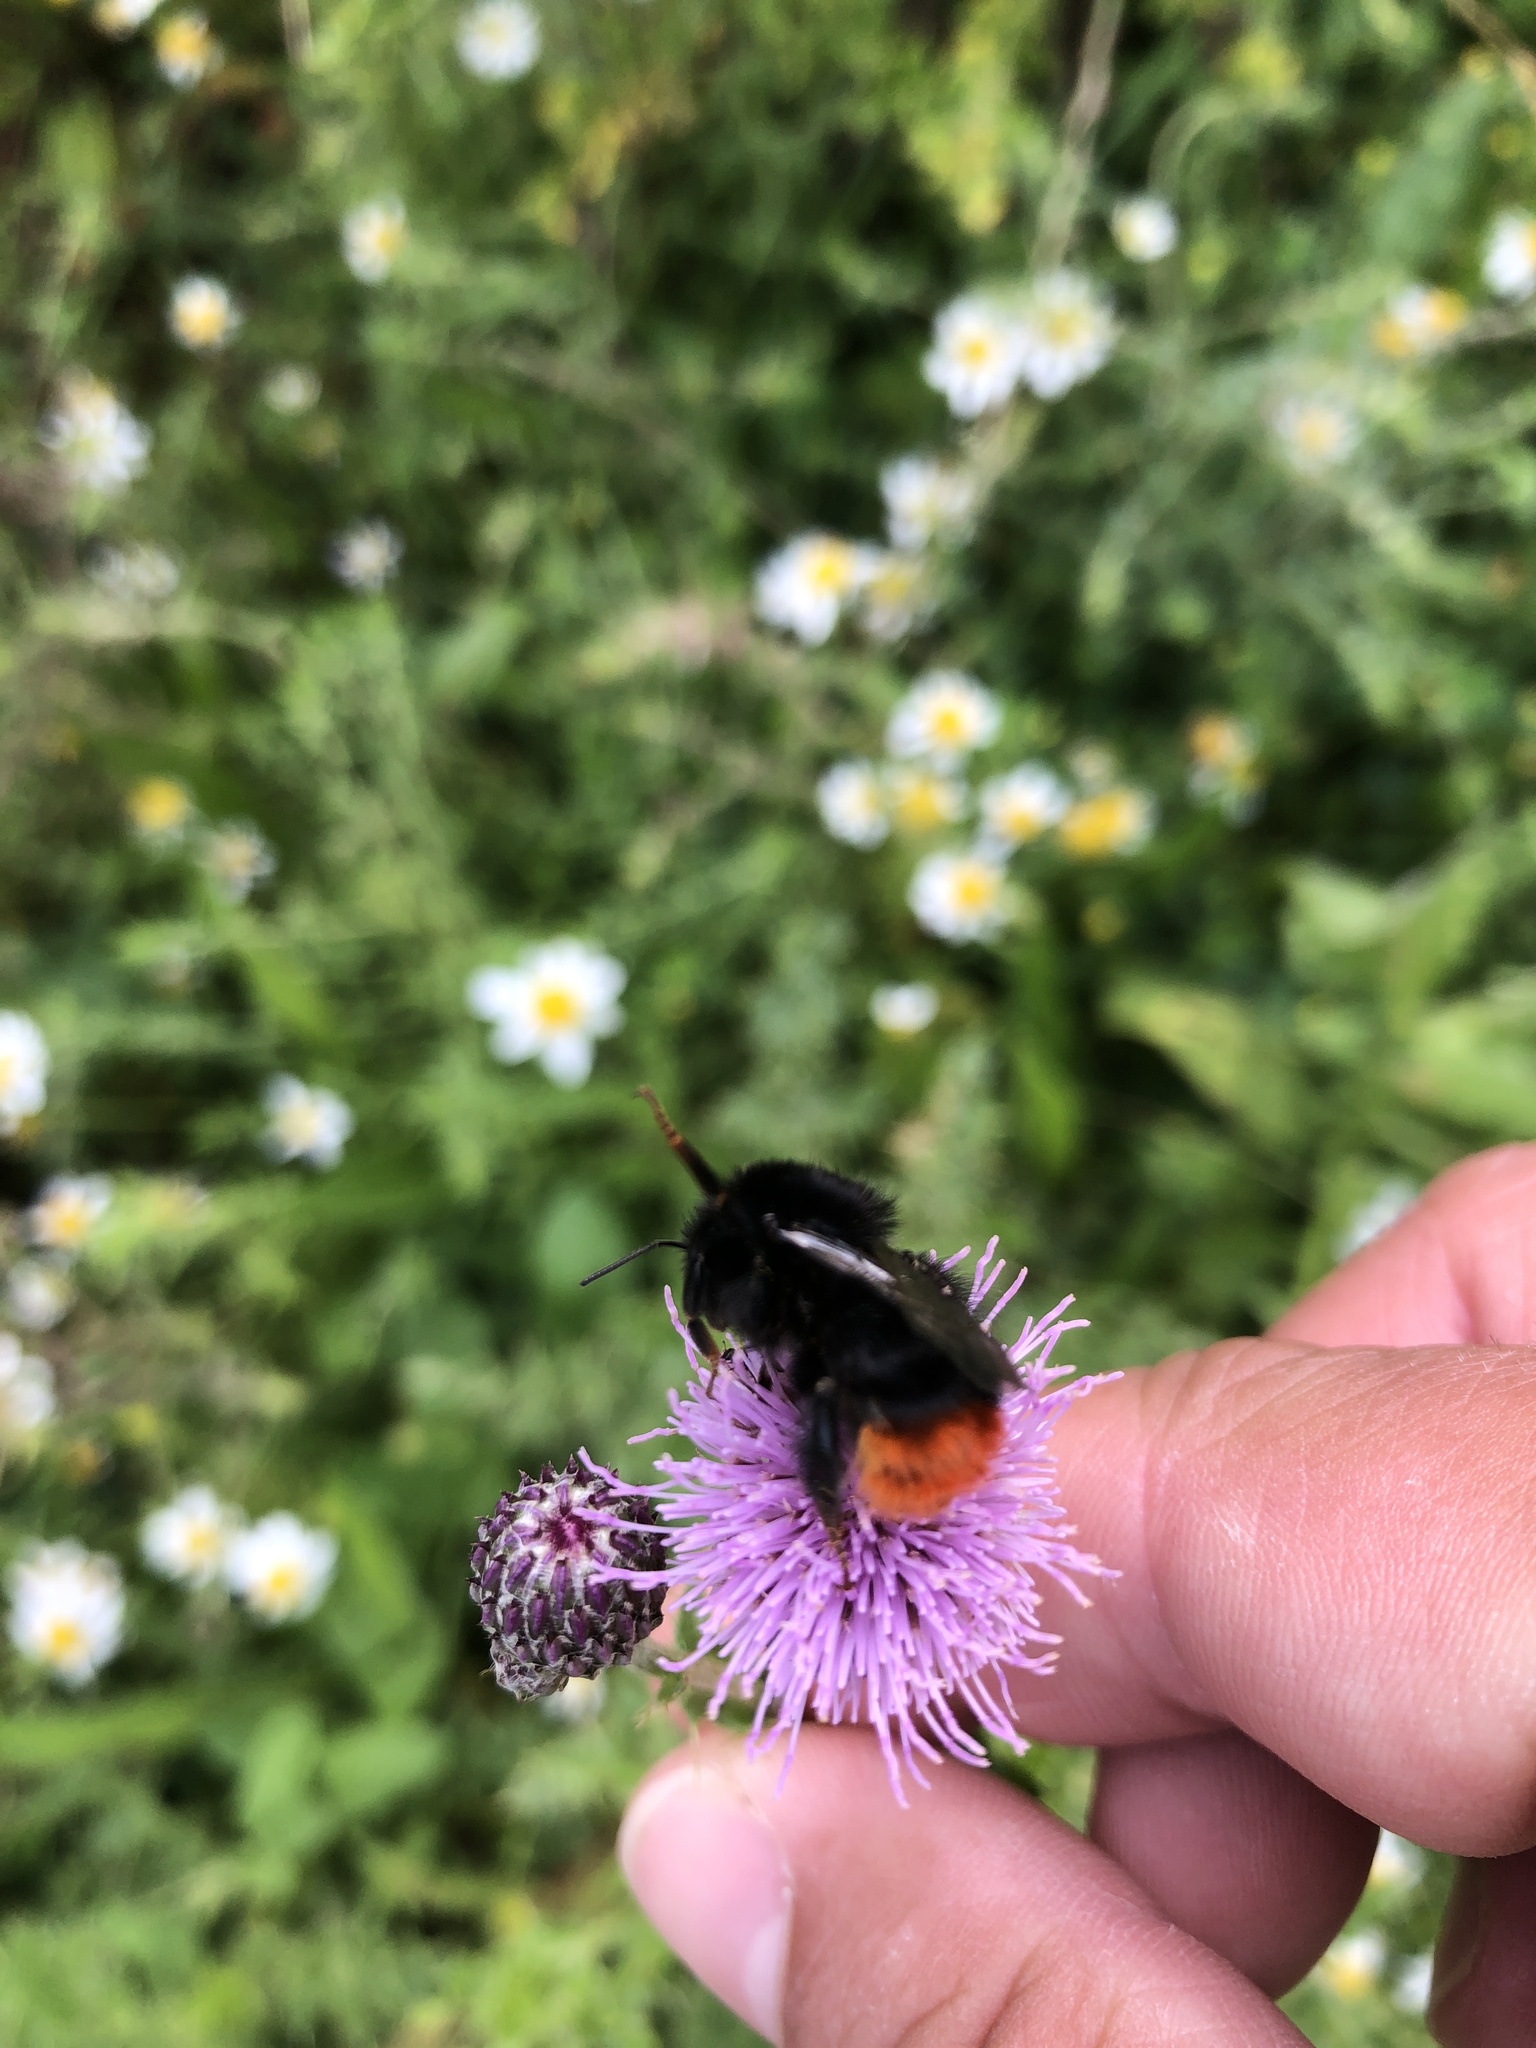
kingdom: Animalia
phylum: Arthropoda
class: Insecta
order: Hymenoptera
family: Apidae
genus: Bombus
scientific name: Bombus lapidarius
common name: Large red-tailed humble-bee
